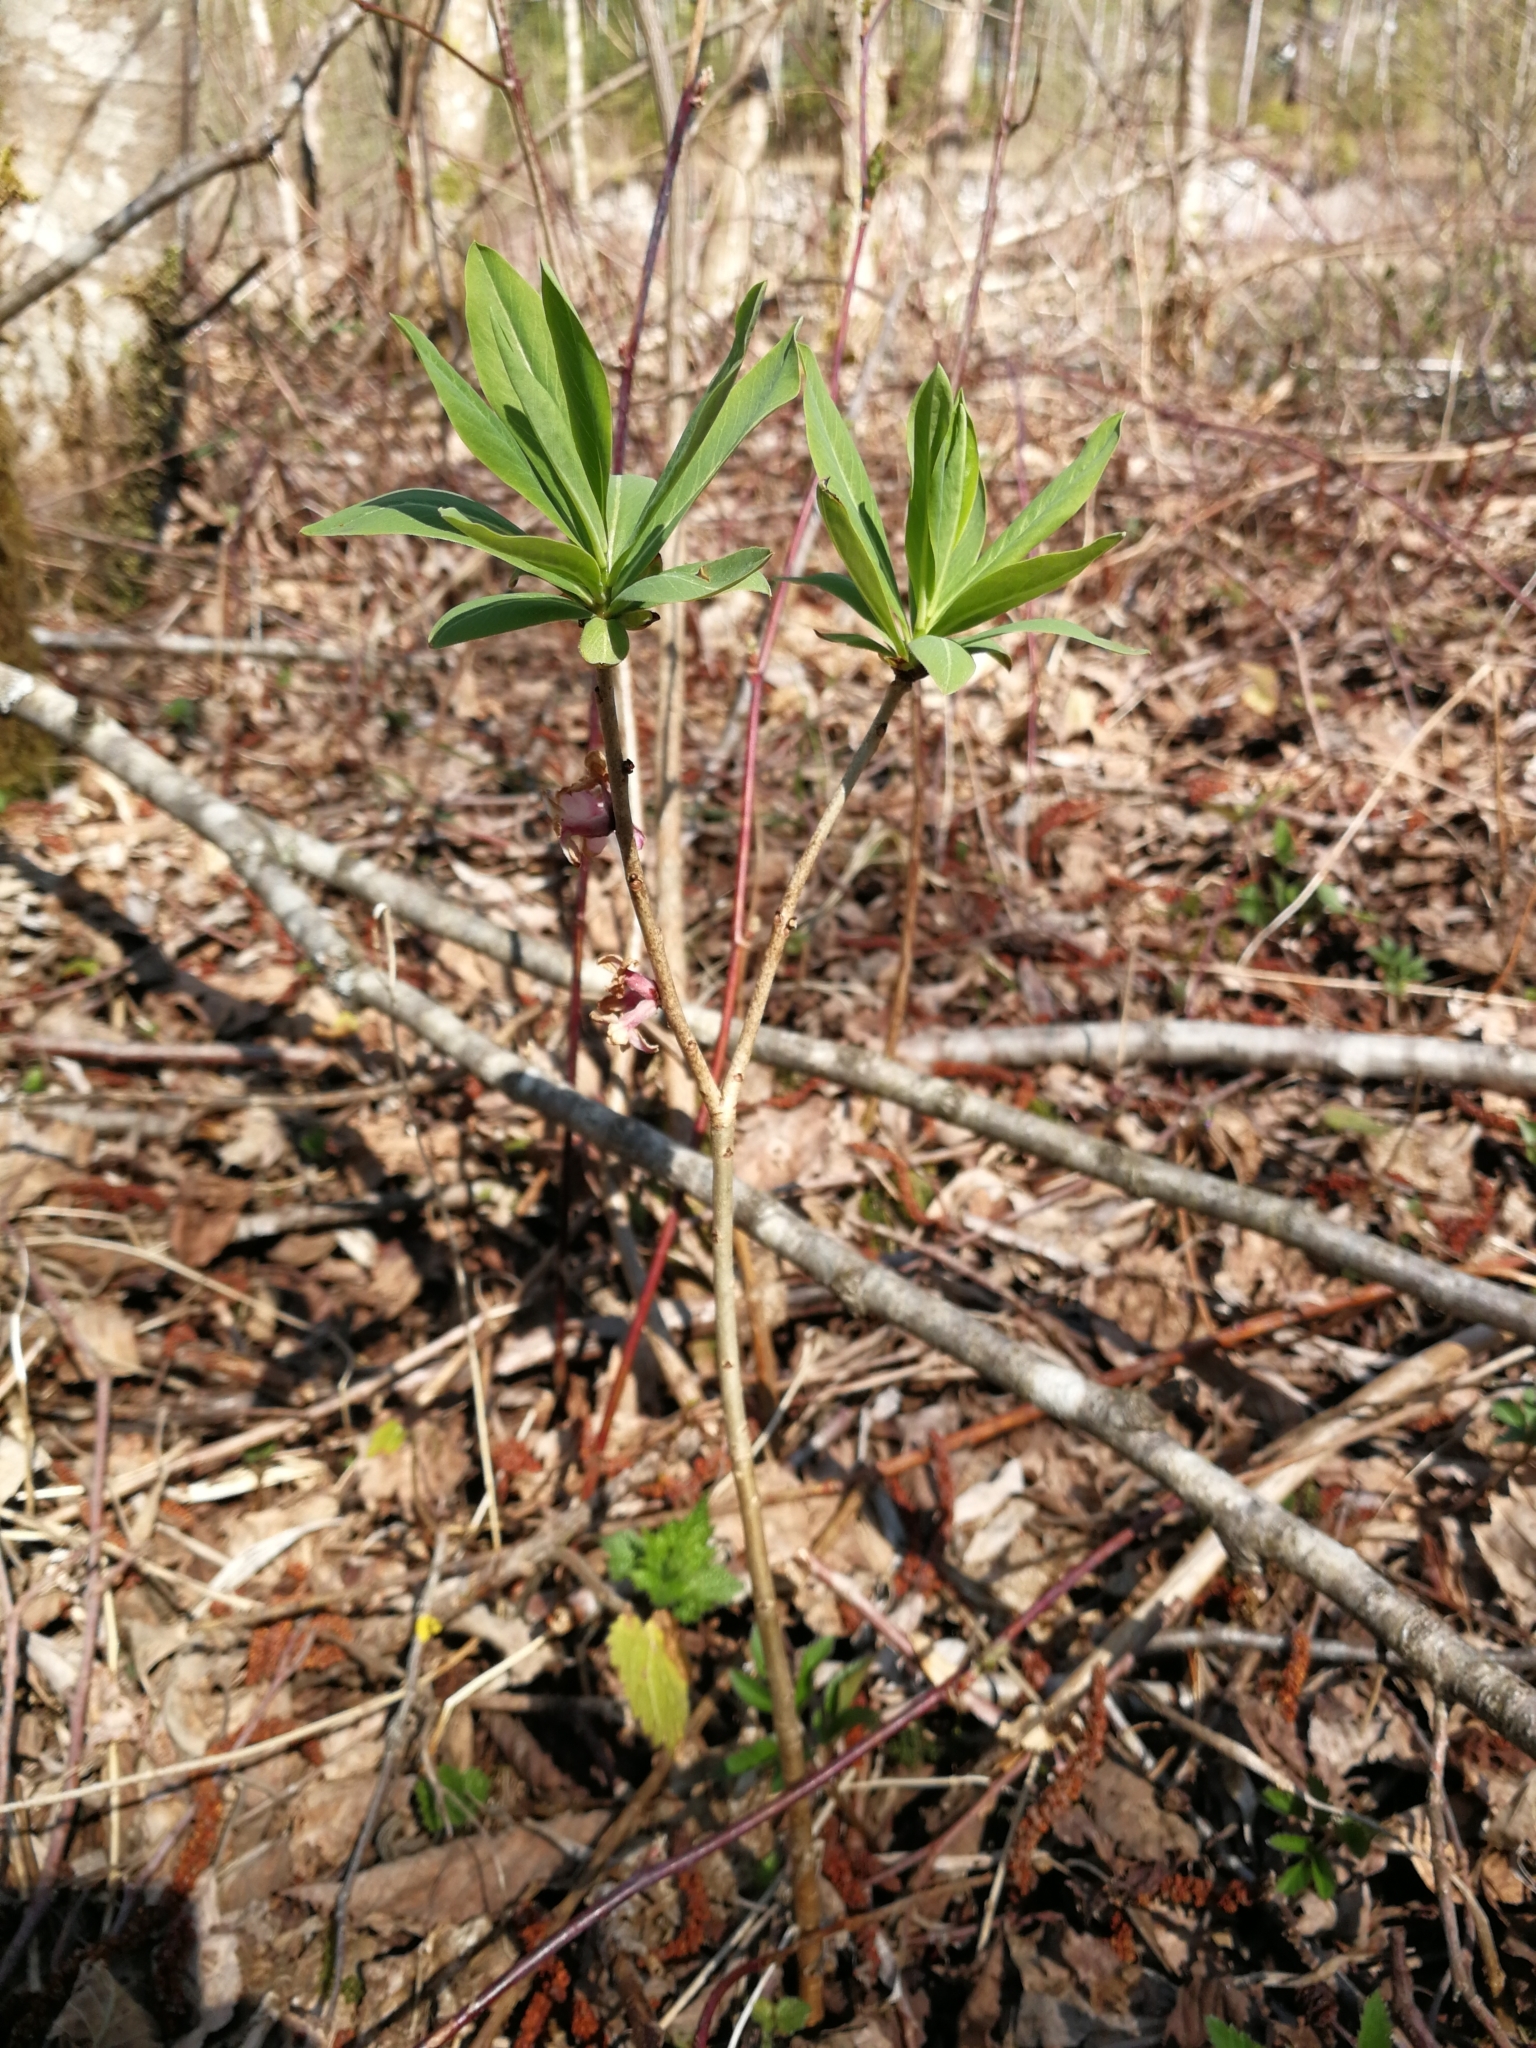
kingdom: Plantae
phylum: Tracheophyta
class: Magnoliopsida
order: Malvales
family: Thymelaeaceae
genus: Daphne
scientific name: Daphne mezereum
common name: Mezereon
